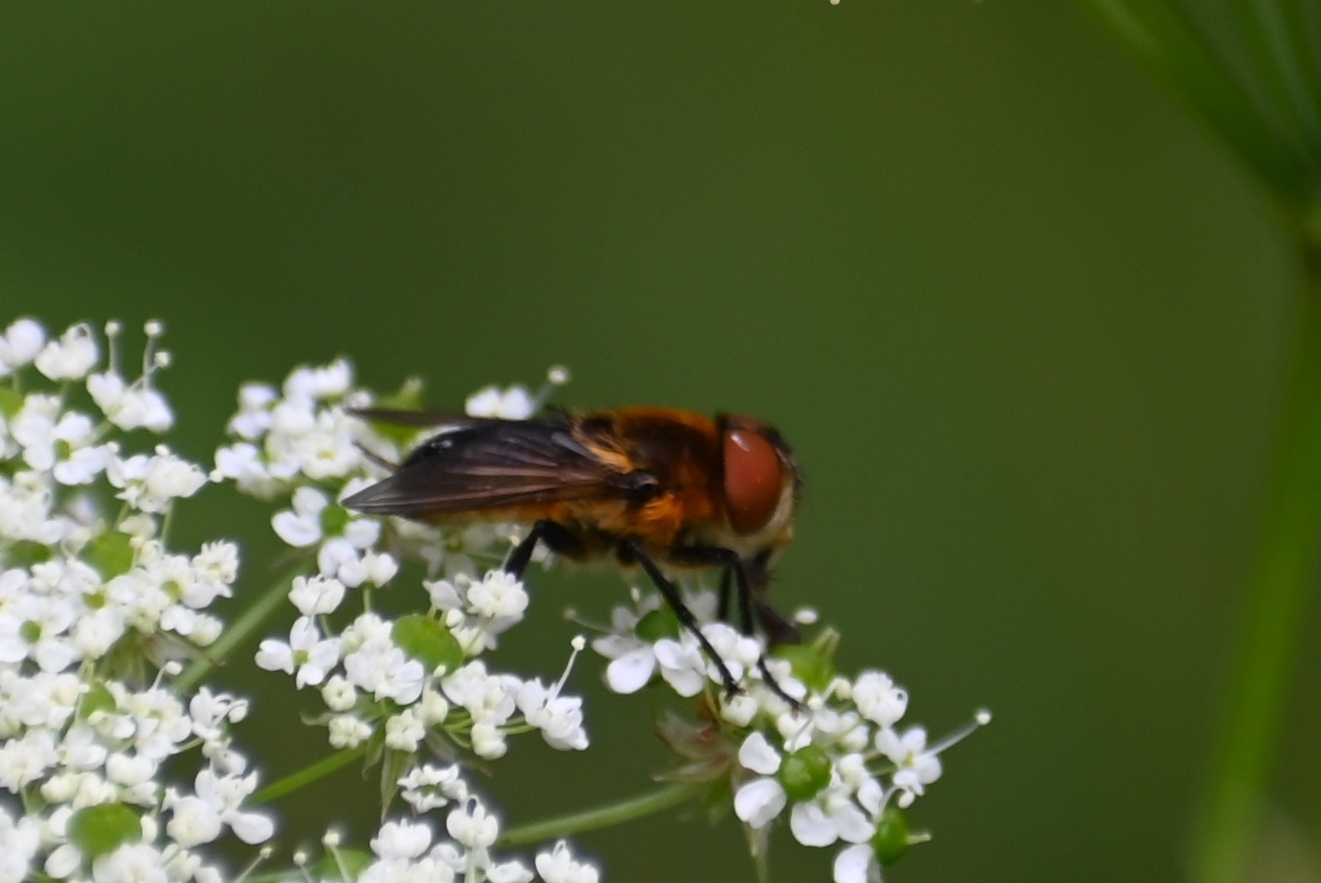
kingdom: Animalia
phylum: Arthropoda
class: Insecta
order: Diptera
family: Tachinidae
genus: Phasia
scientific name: Phasia hemiptera
